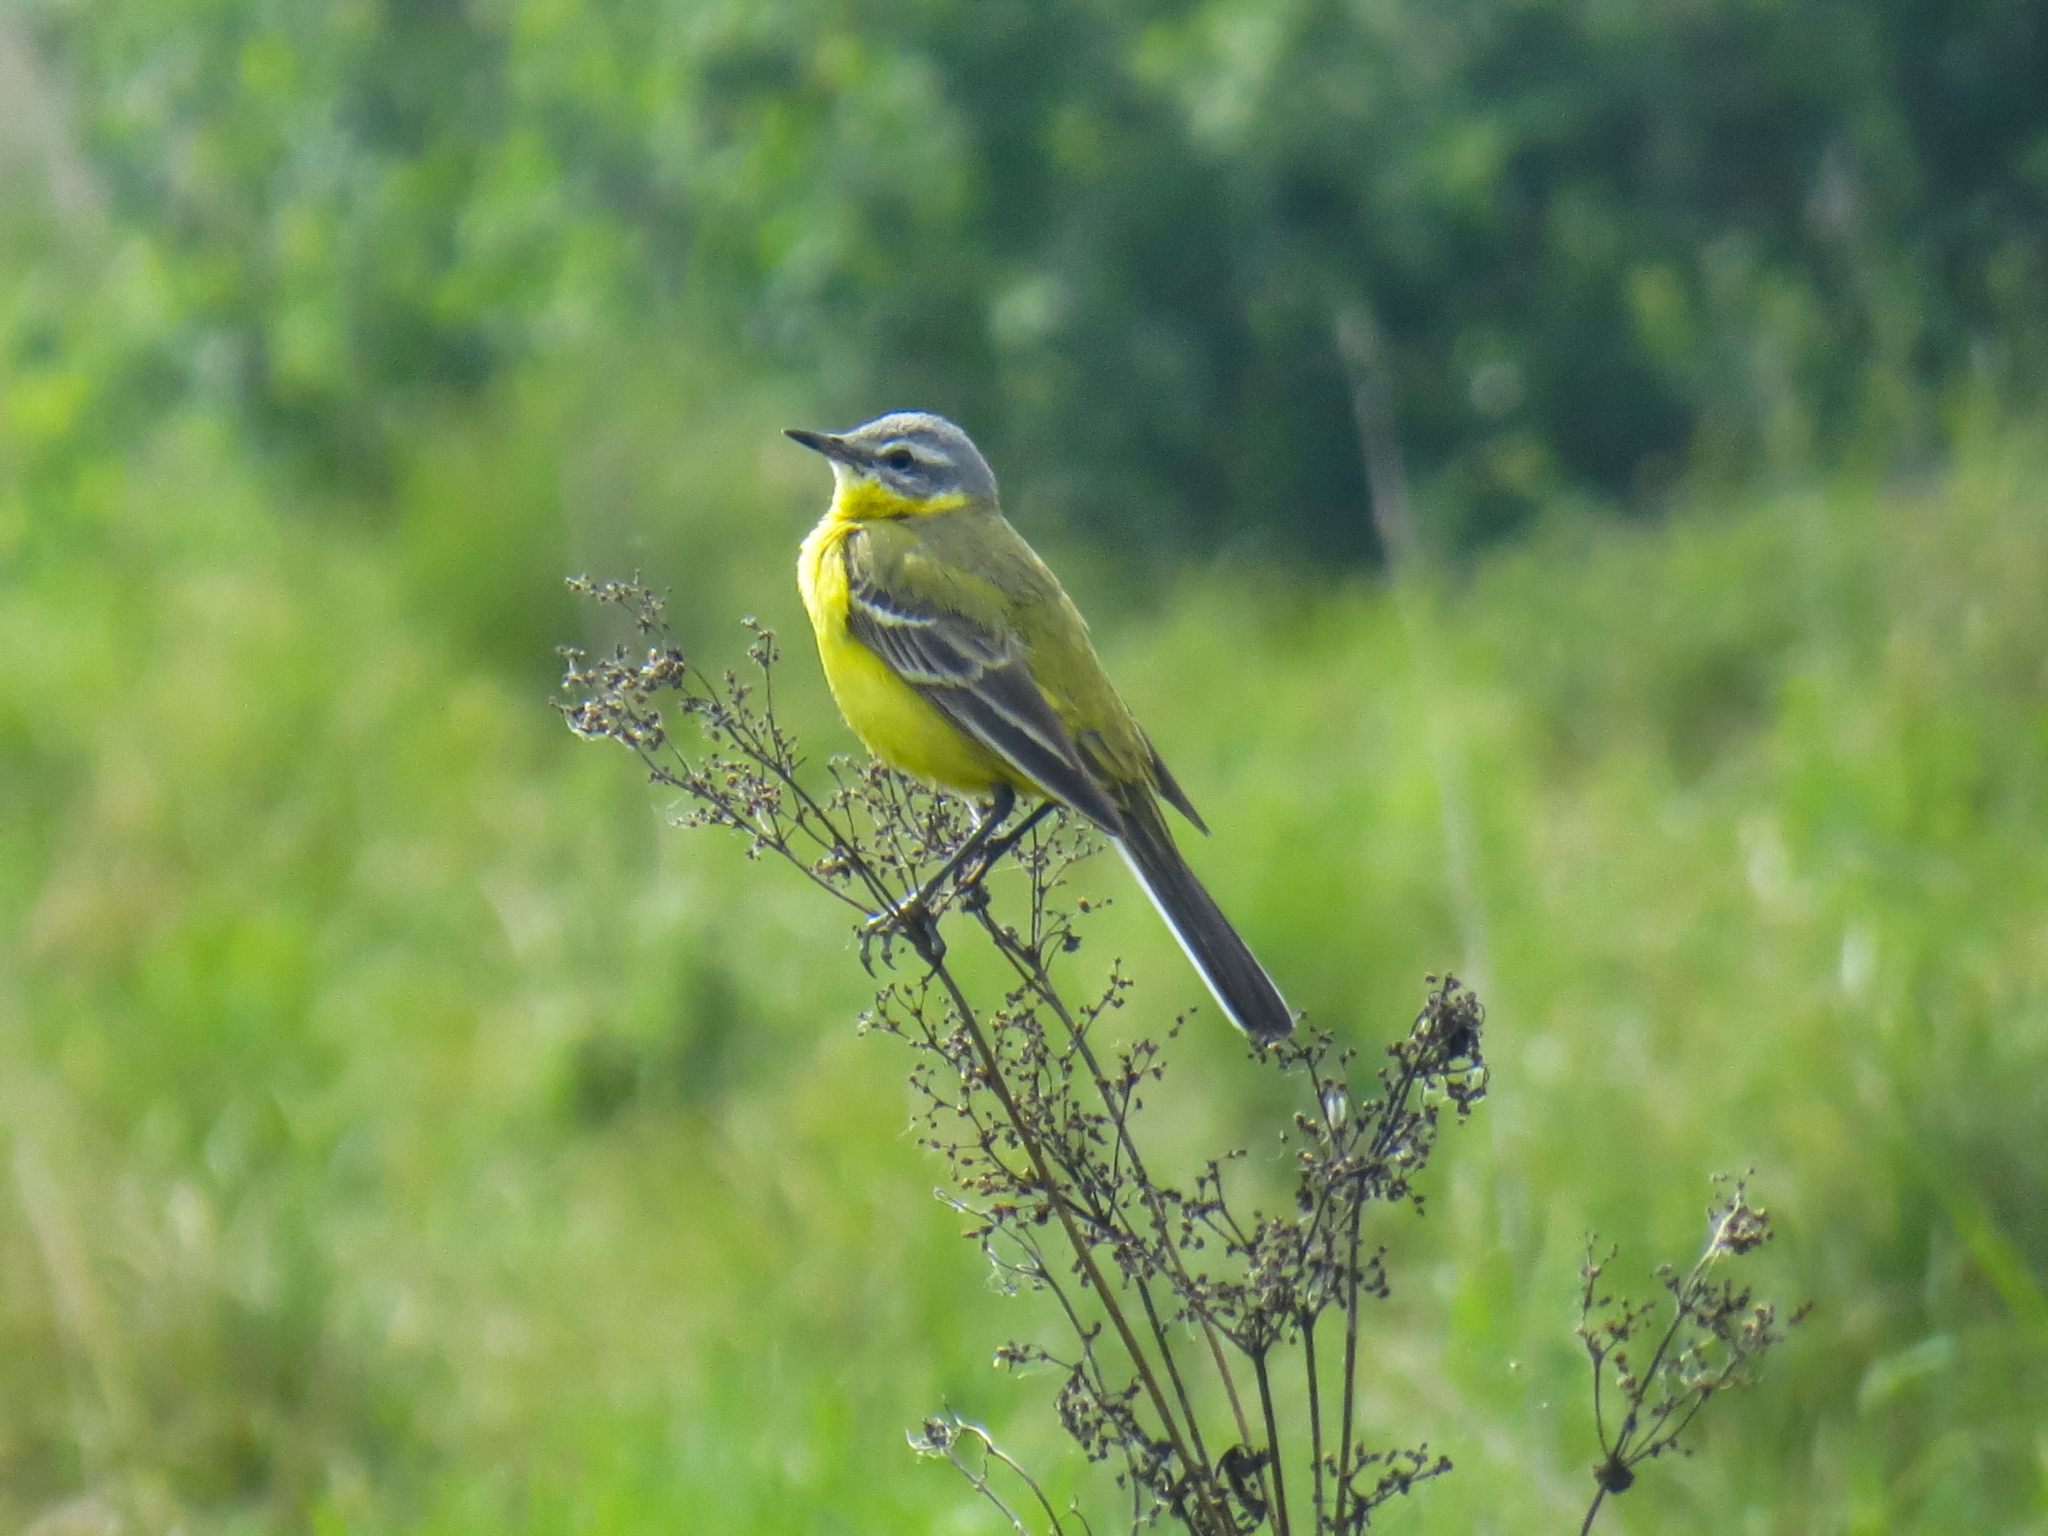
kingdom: Animalia
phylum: Chordata
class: Aves
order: Passeriformes
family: Motacillidae
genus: Motacilla
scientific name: Motacilla flava
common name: Western yellow wagtail
